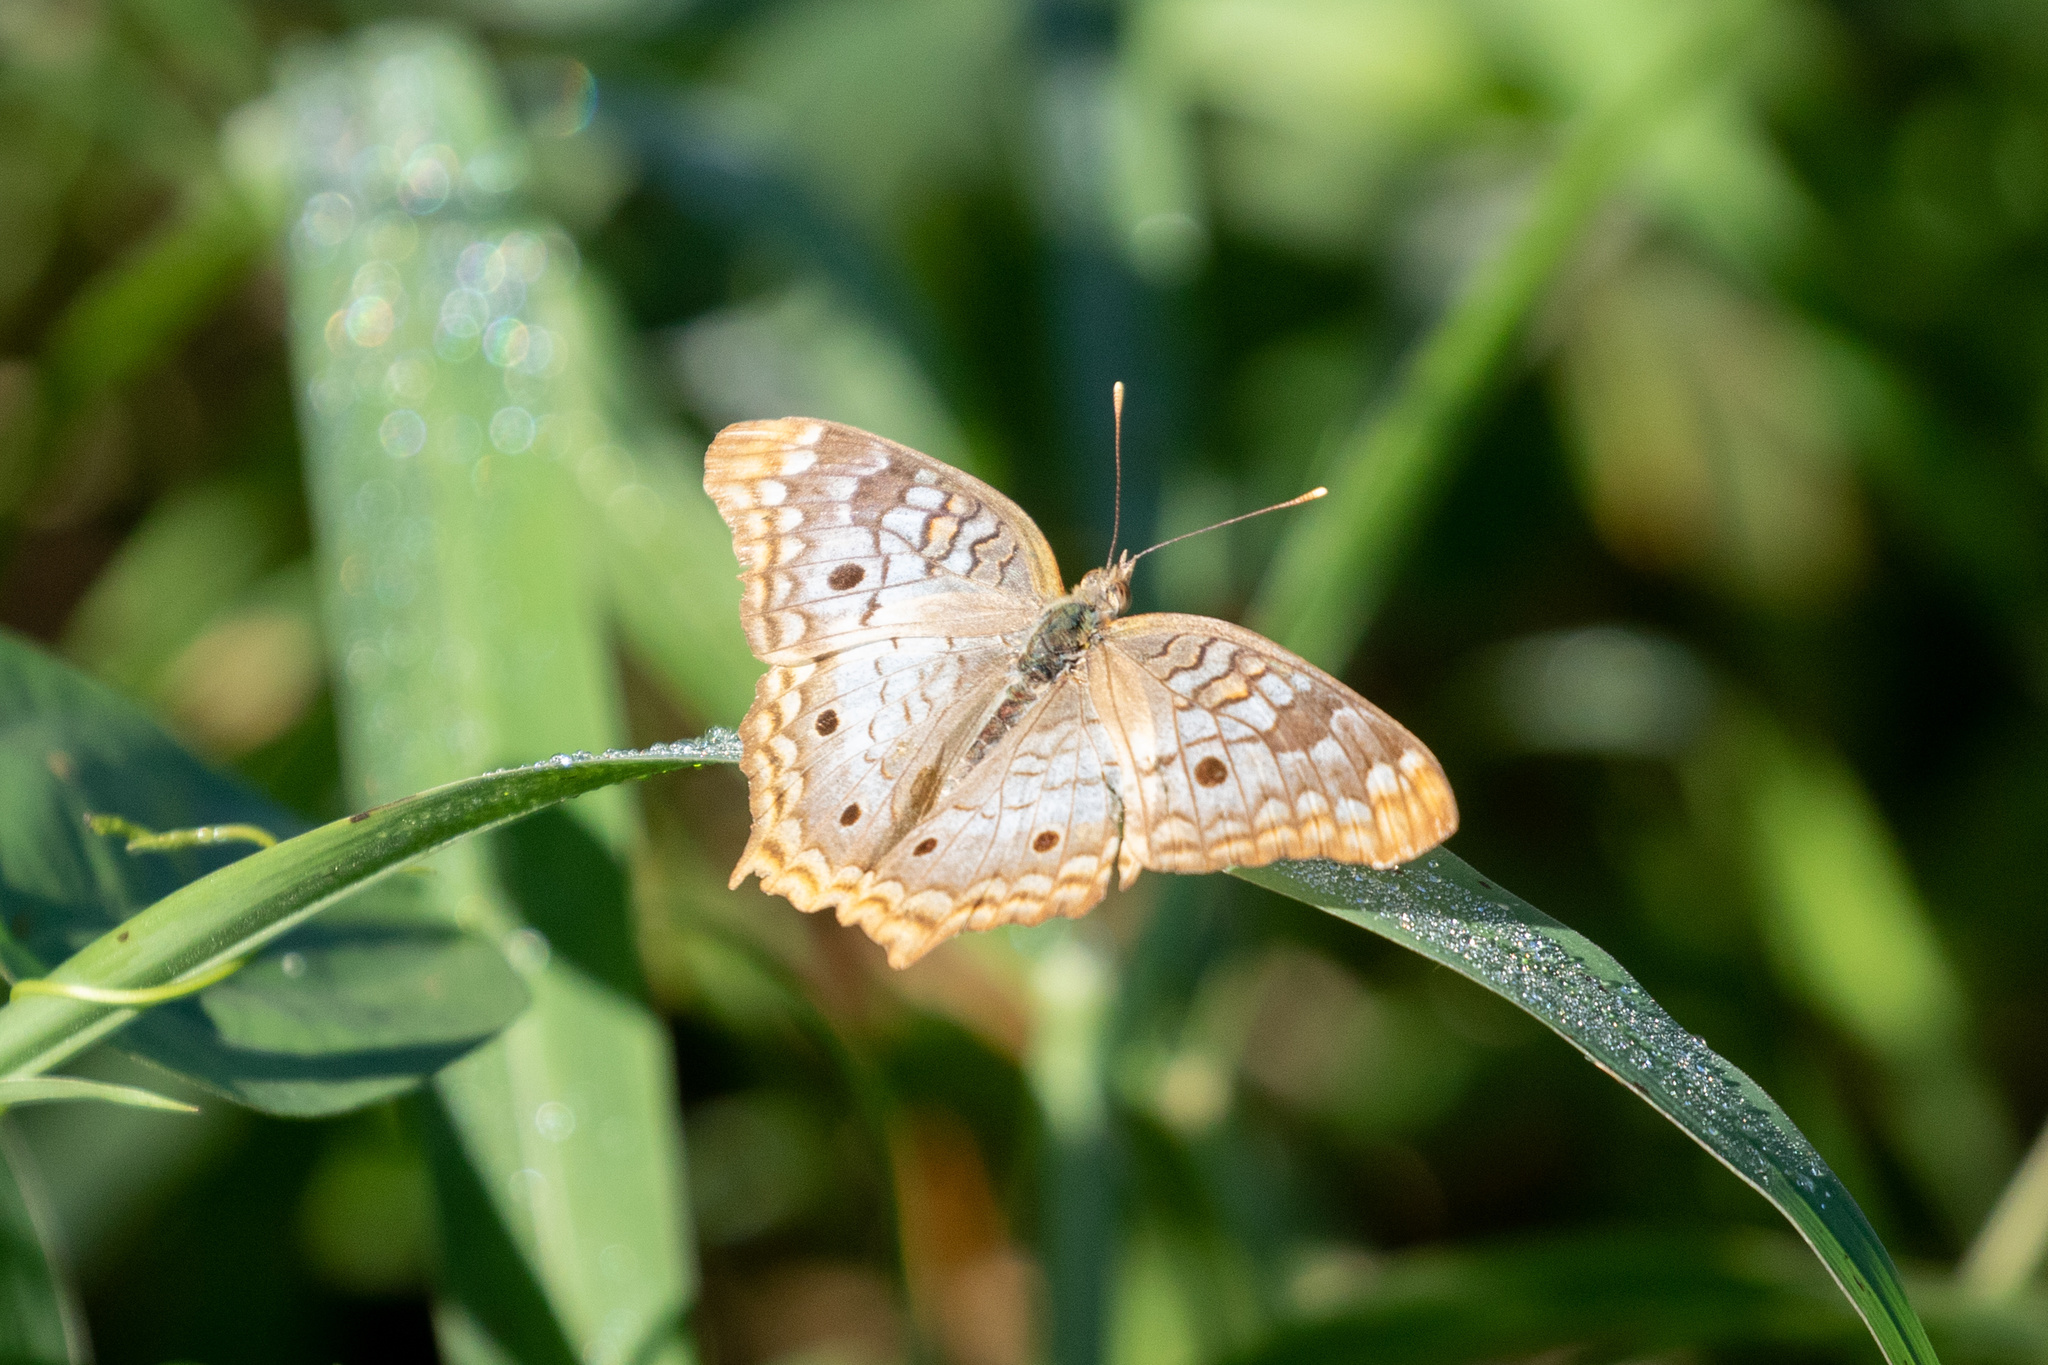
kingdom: Animalia
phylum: Arthropoda
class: Insecta
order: Lepidoptera
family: Nymphalidae
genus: Anartia
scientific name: Anartia jatrophae
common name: White peacock
